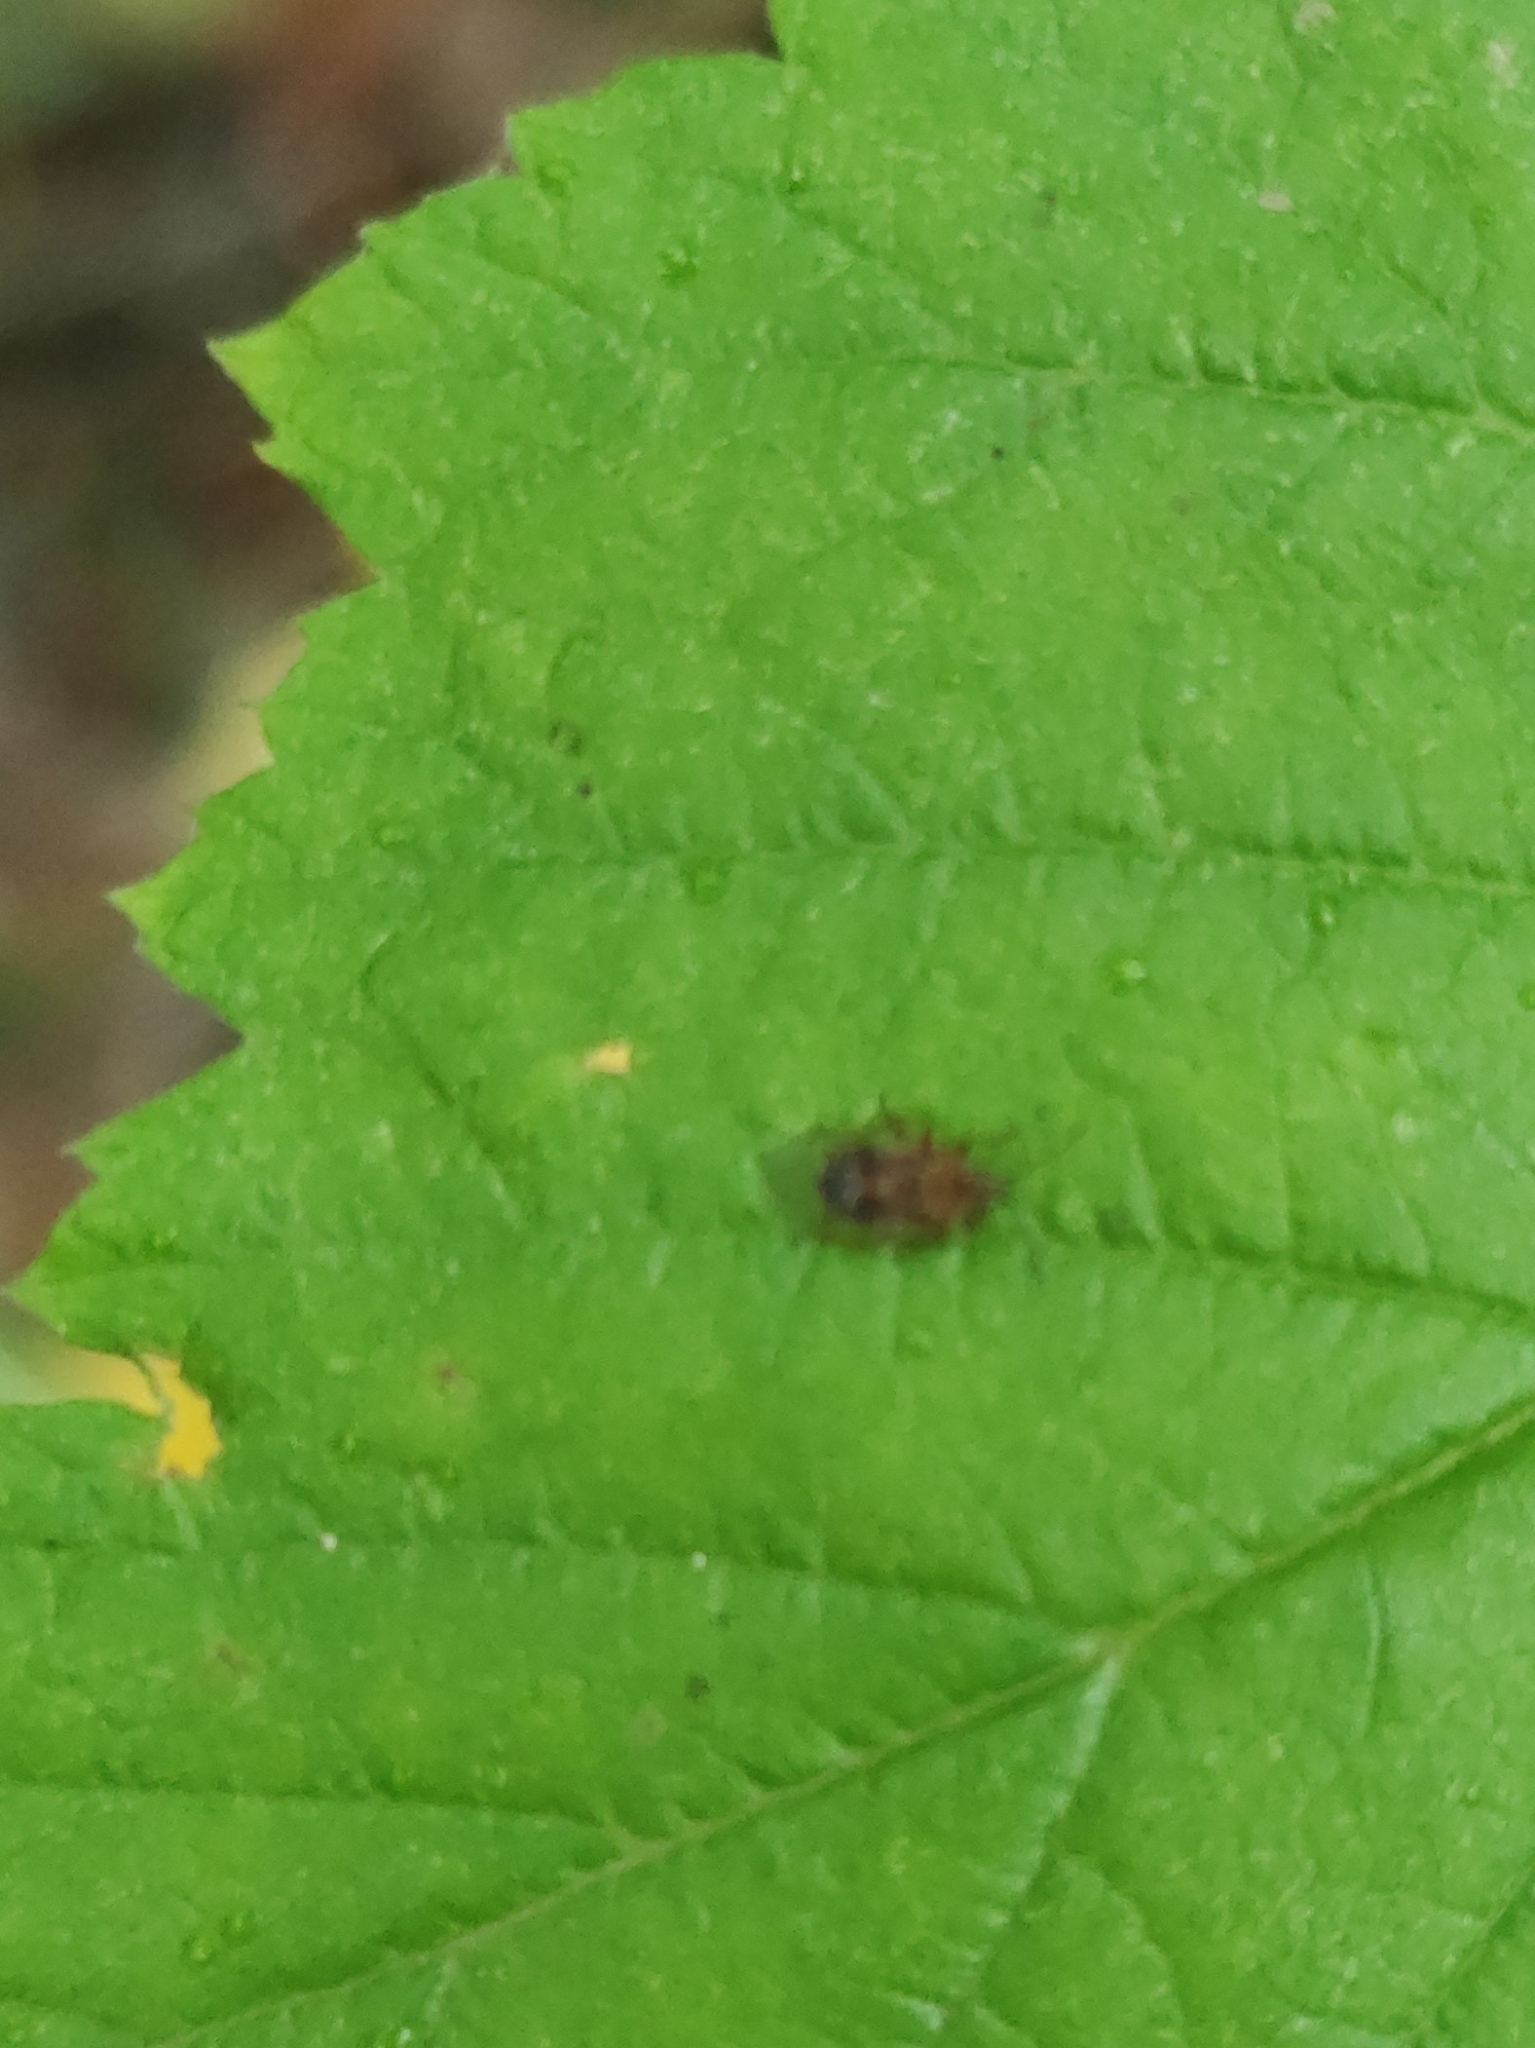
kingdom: Animalia
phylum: Arthropoda
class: Insecta
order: Hemiptera
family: Lygaeidae
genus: Kleidocerys
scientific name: Kleidocerys resedae
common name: Birch catkin bug
